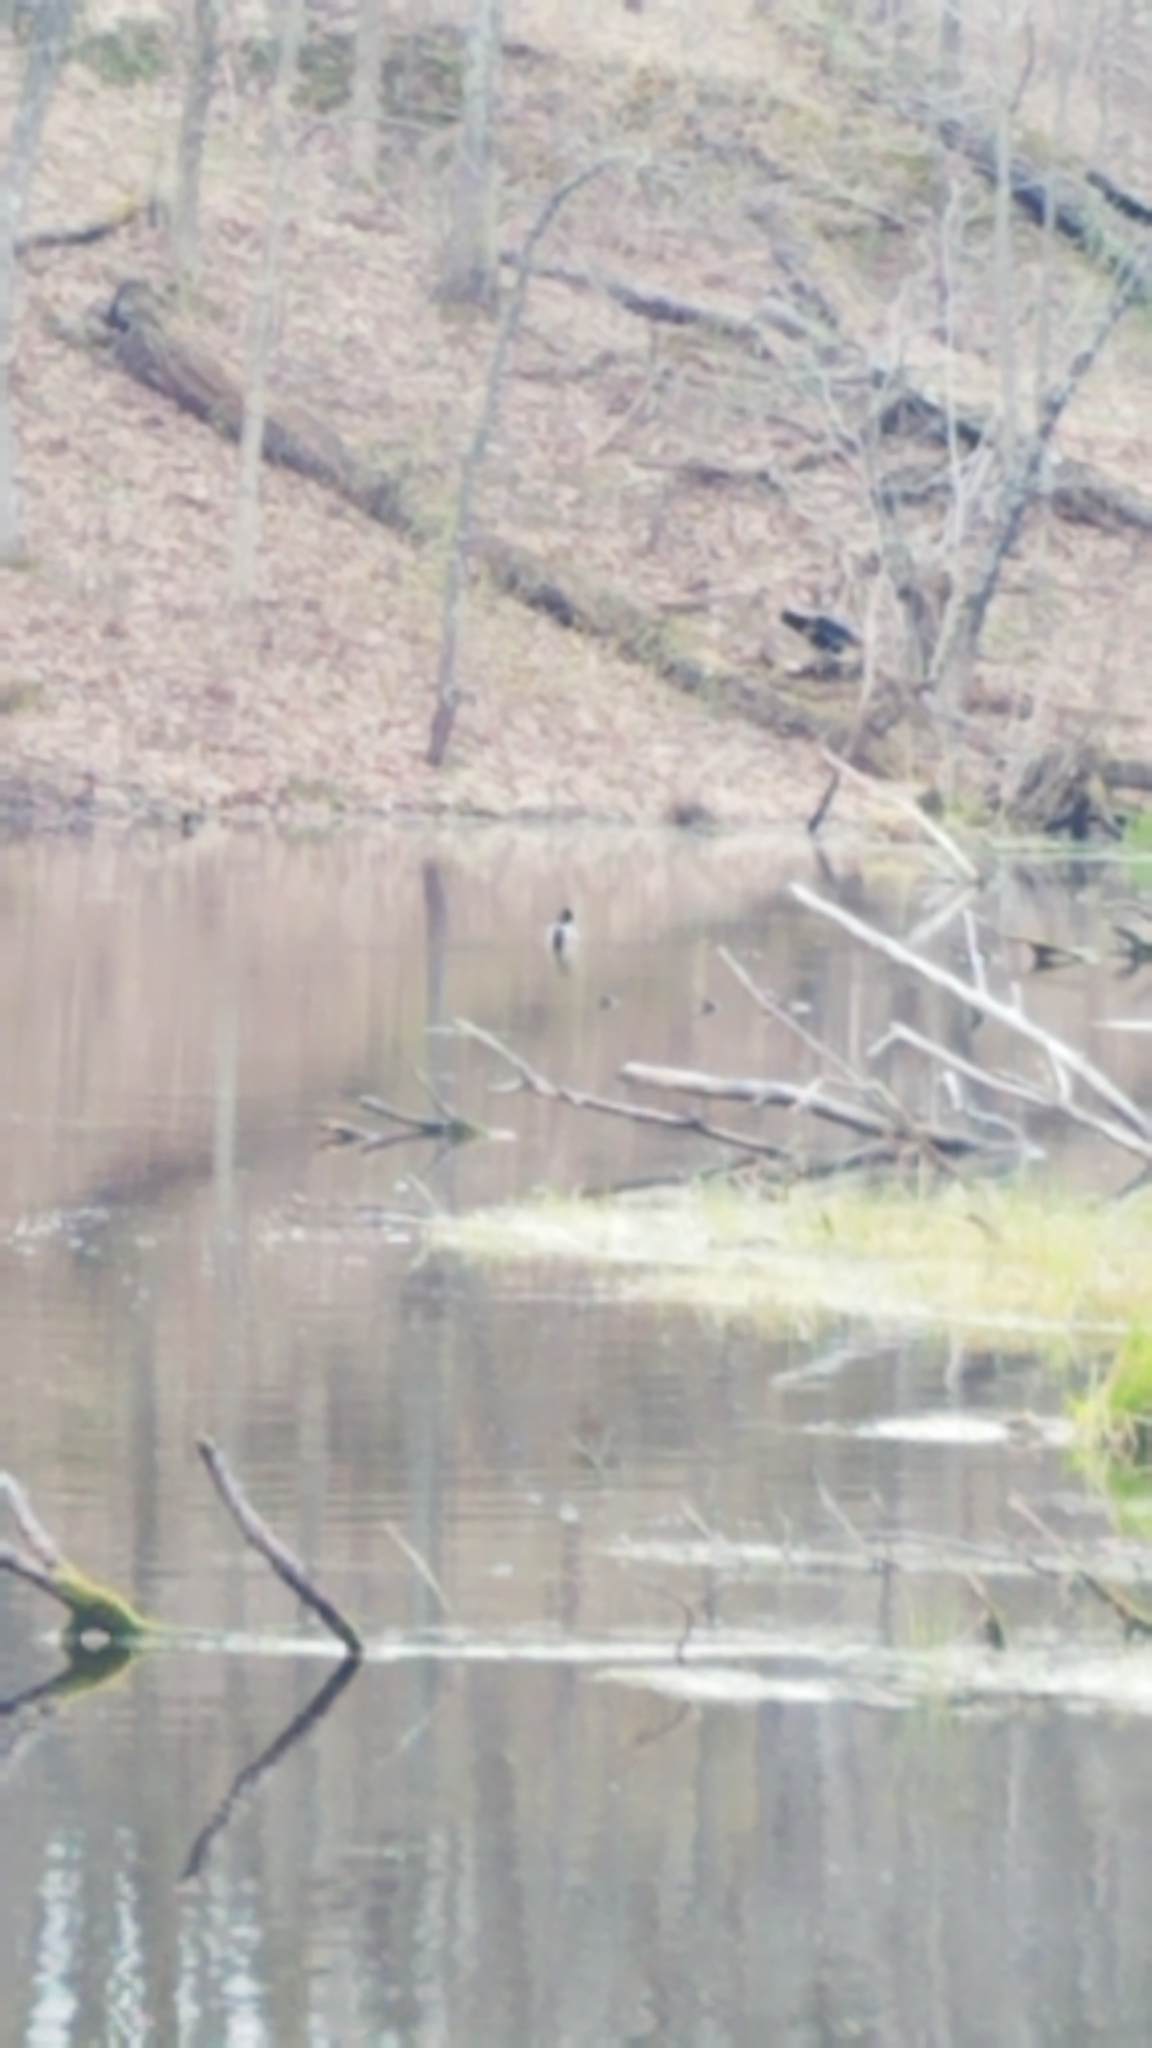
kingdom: Animalia
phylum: Chordata
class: Aves
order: Anseriformes
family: Anatidae
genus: Anas
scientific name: Anas platyrhynchos
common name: Mallard
